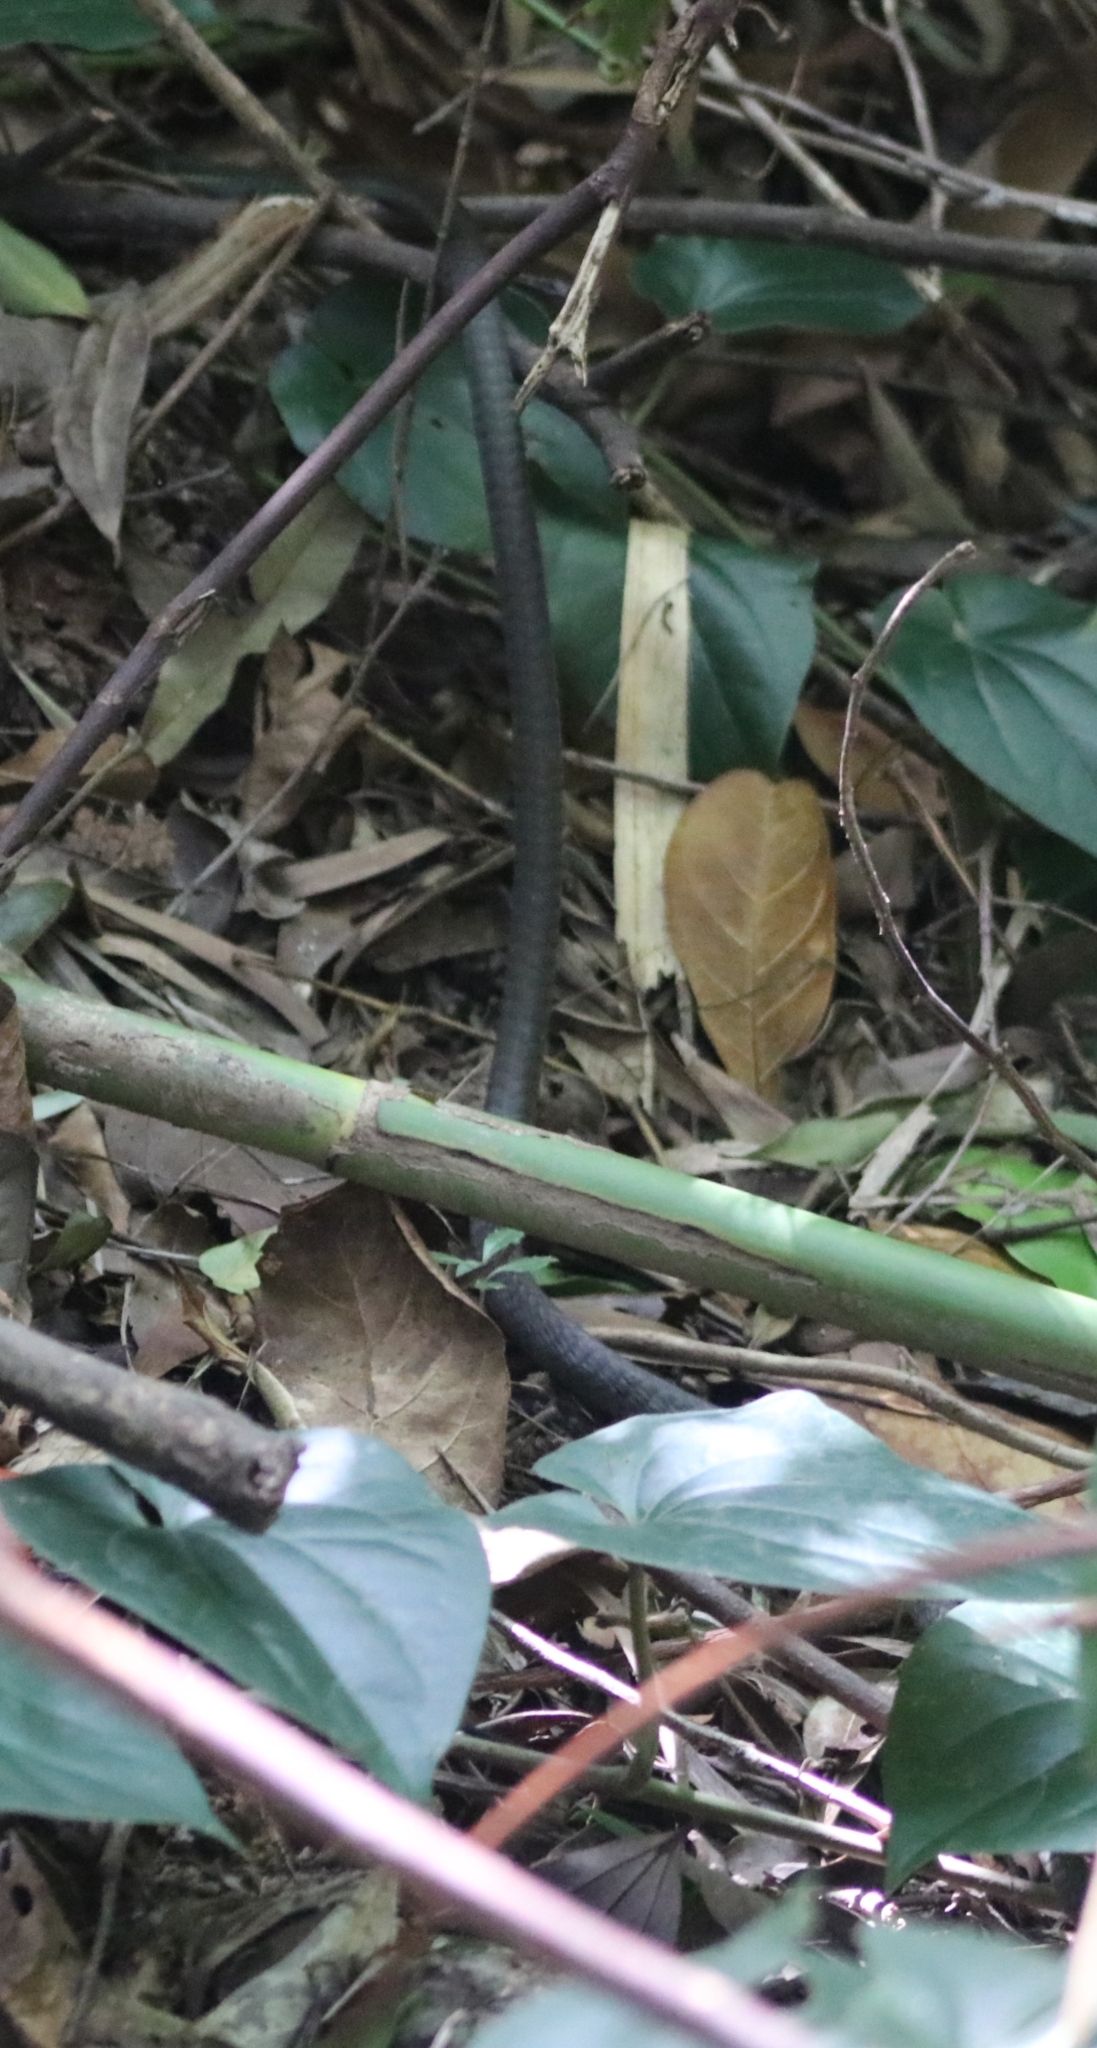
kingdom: Animalia
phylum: Chordata
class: Squamata
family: Colubridae
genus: Dendrelaphis
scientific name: Dendrelaphis punctulatus
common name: Common tree snake
